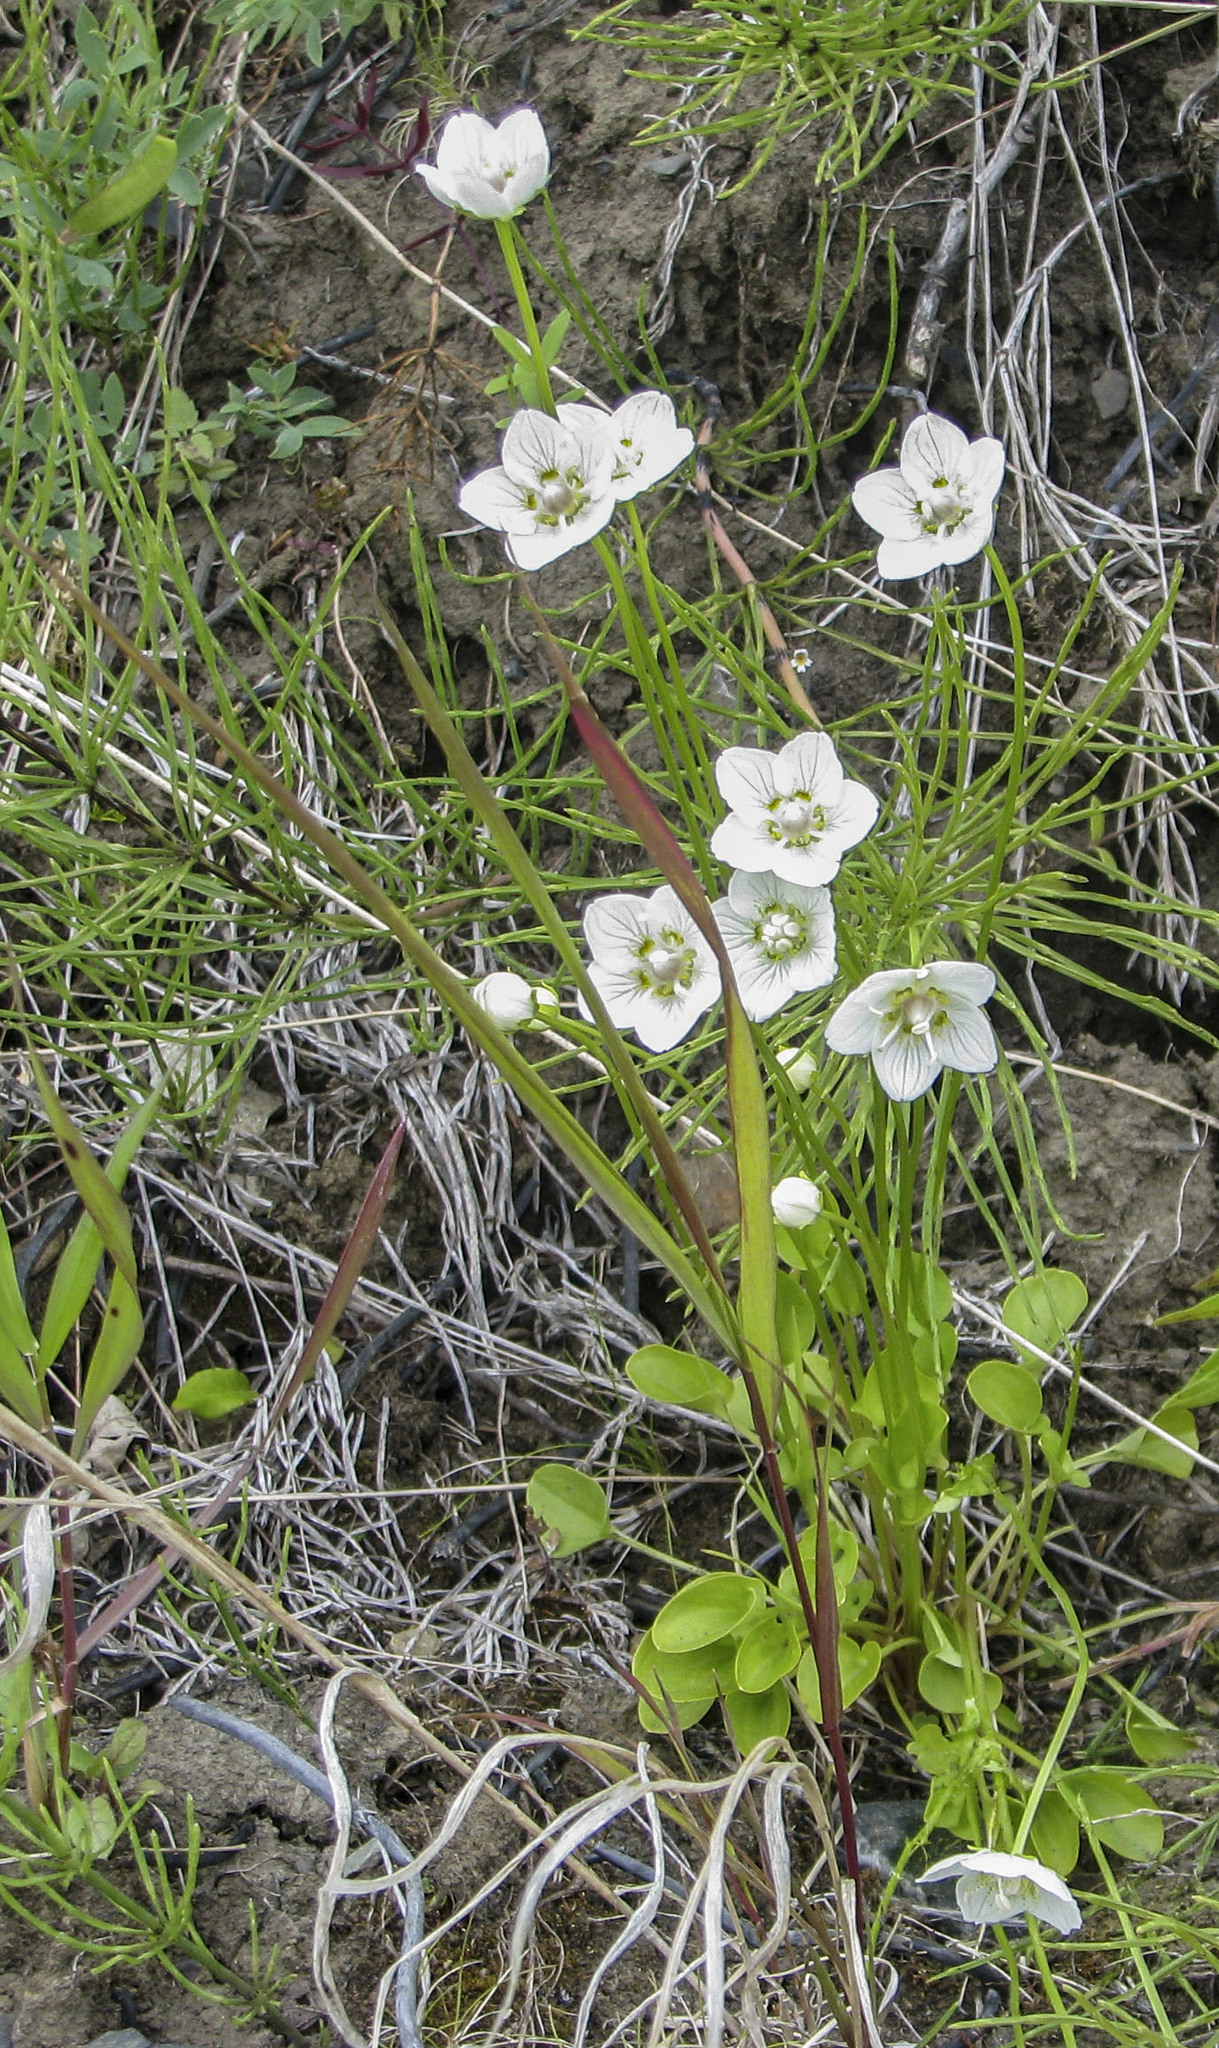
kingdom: Plantae
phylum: Tracheophyta
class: Magnoliopsida
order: Celastrales
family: Parnassiaceae
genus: Parnassia
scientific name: Parnassia palustris
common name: Grass-of-parnassus
